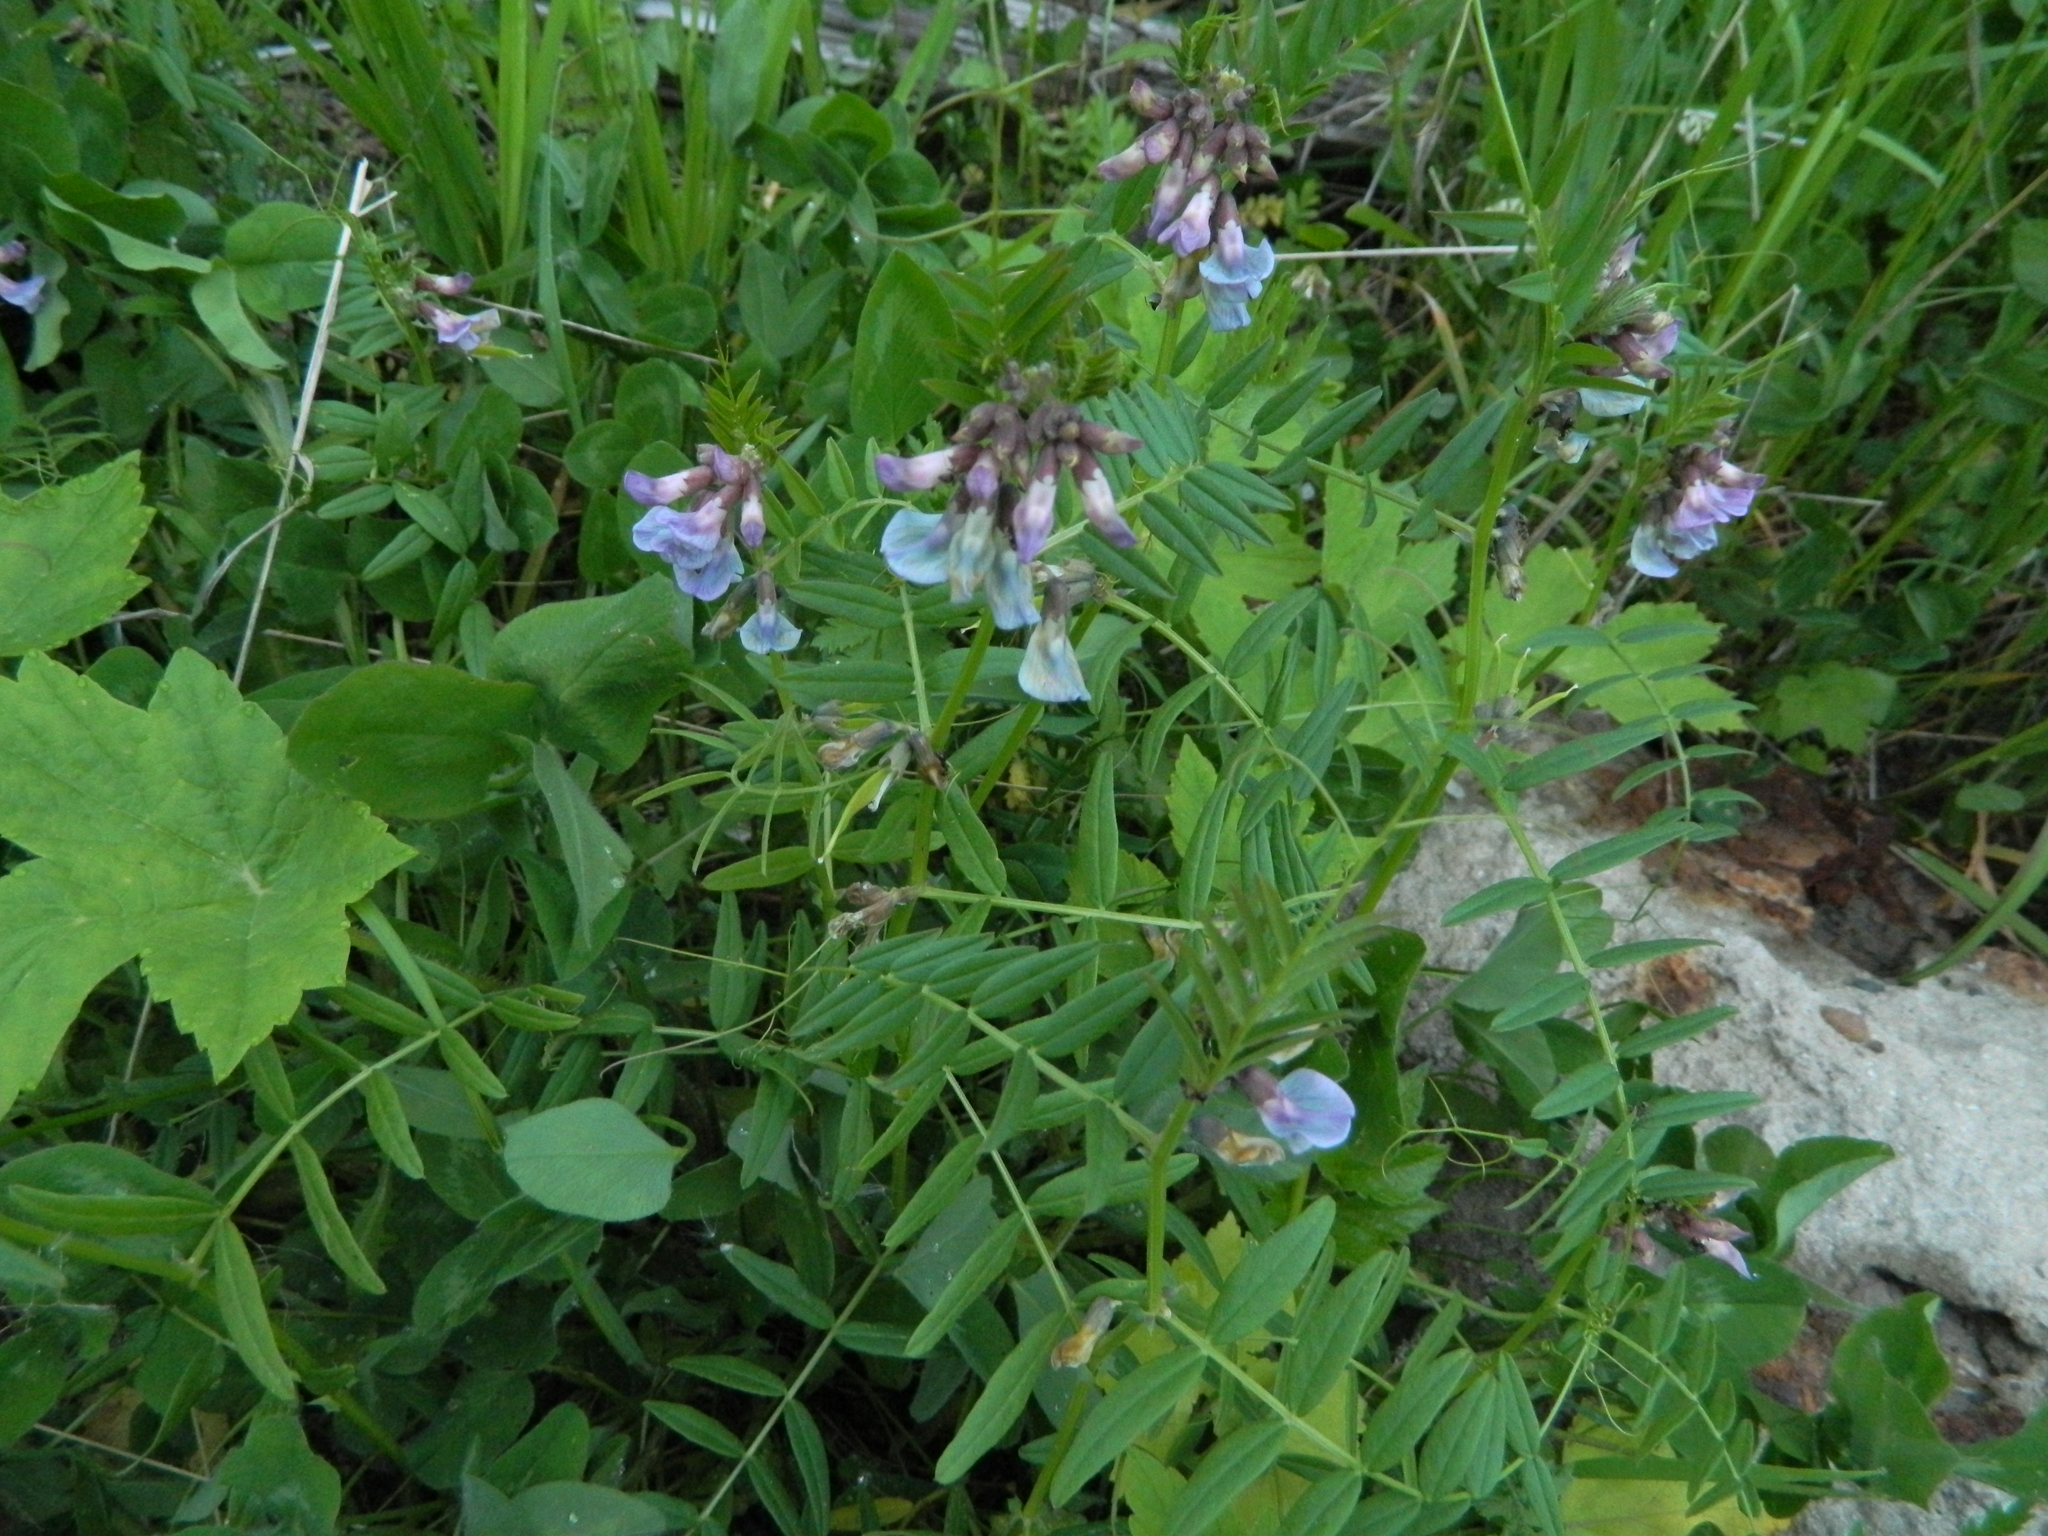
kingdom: Plantae
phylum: Tracheophyta
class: Magnoliopsida
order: Fabales
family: Fabaceae
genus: Vicia
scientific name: Vicia sepium
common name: Bush vetch
